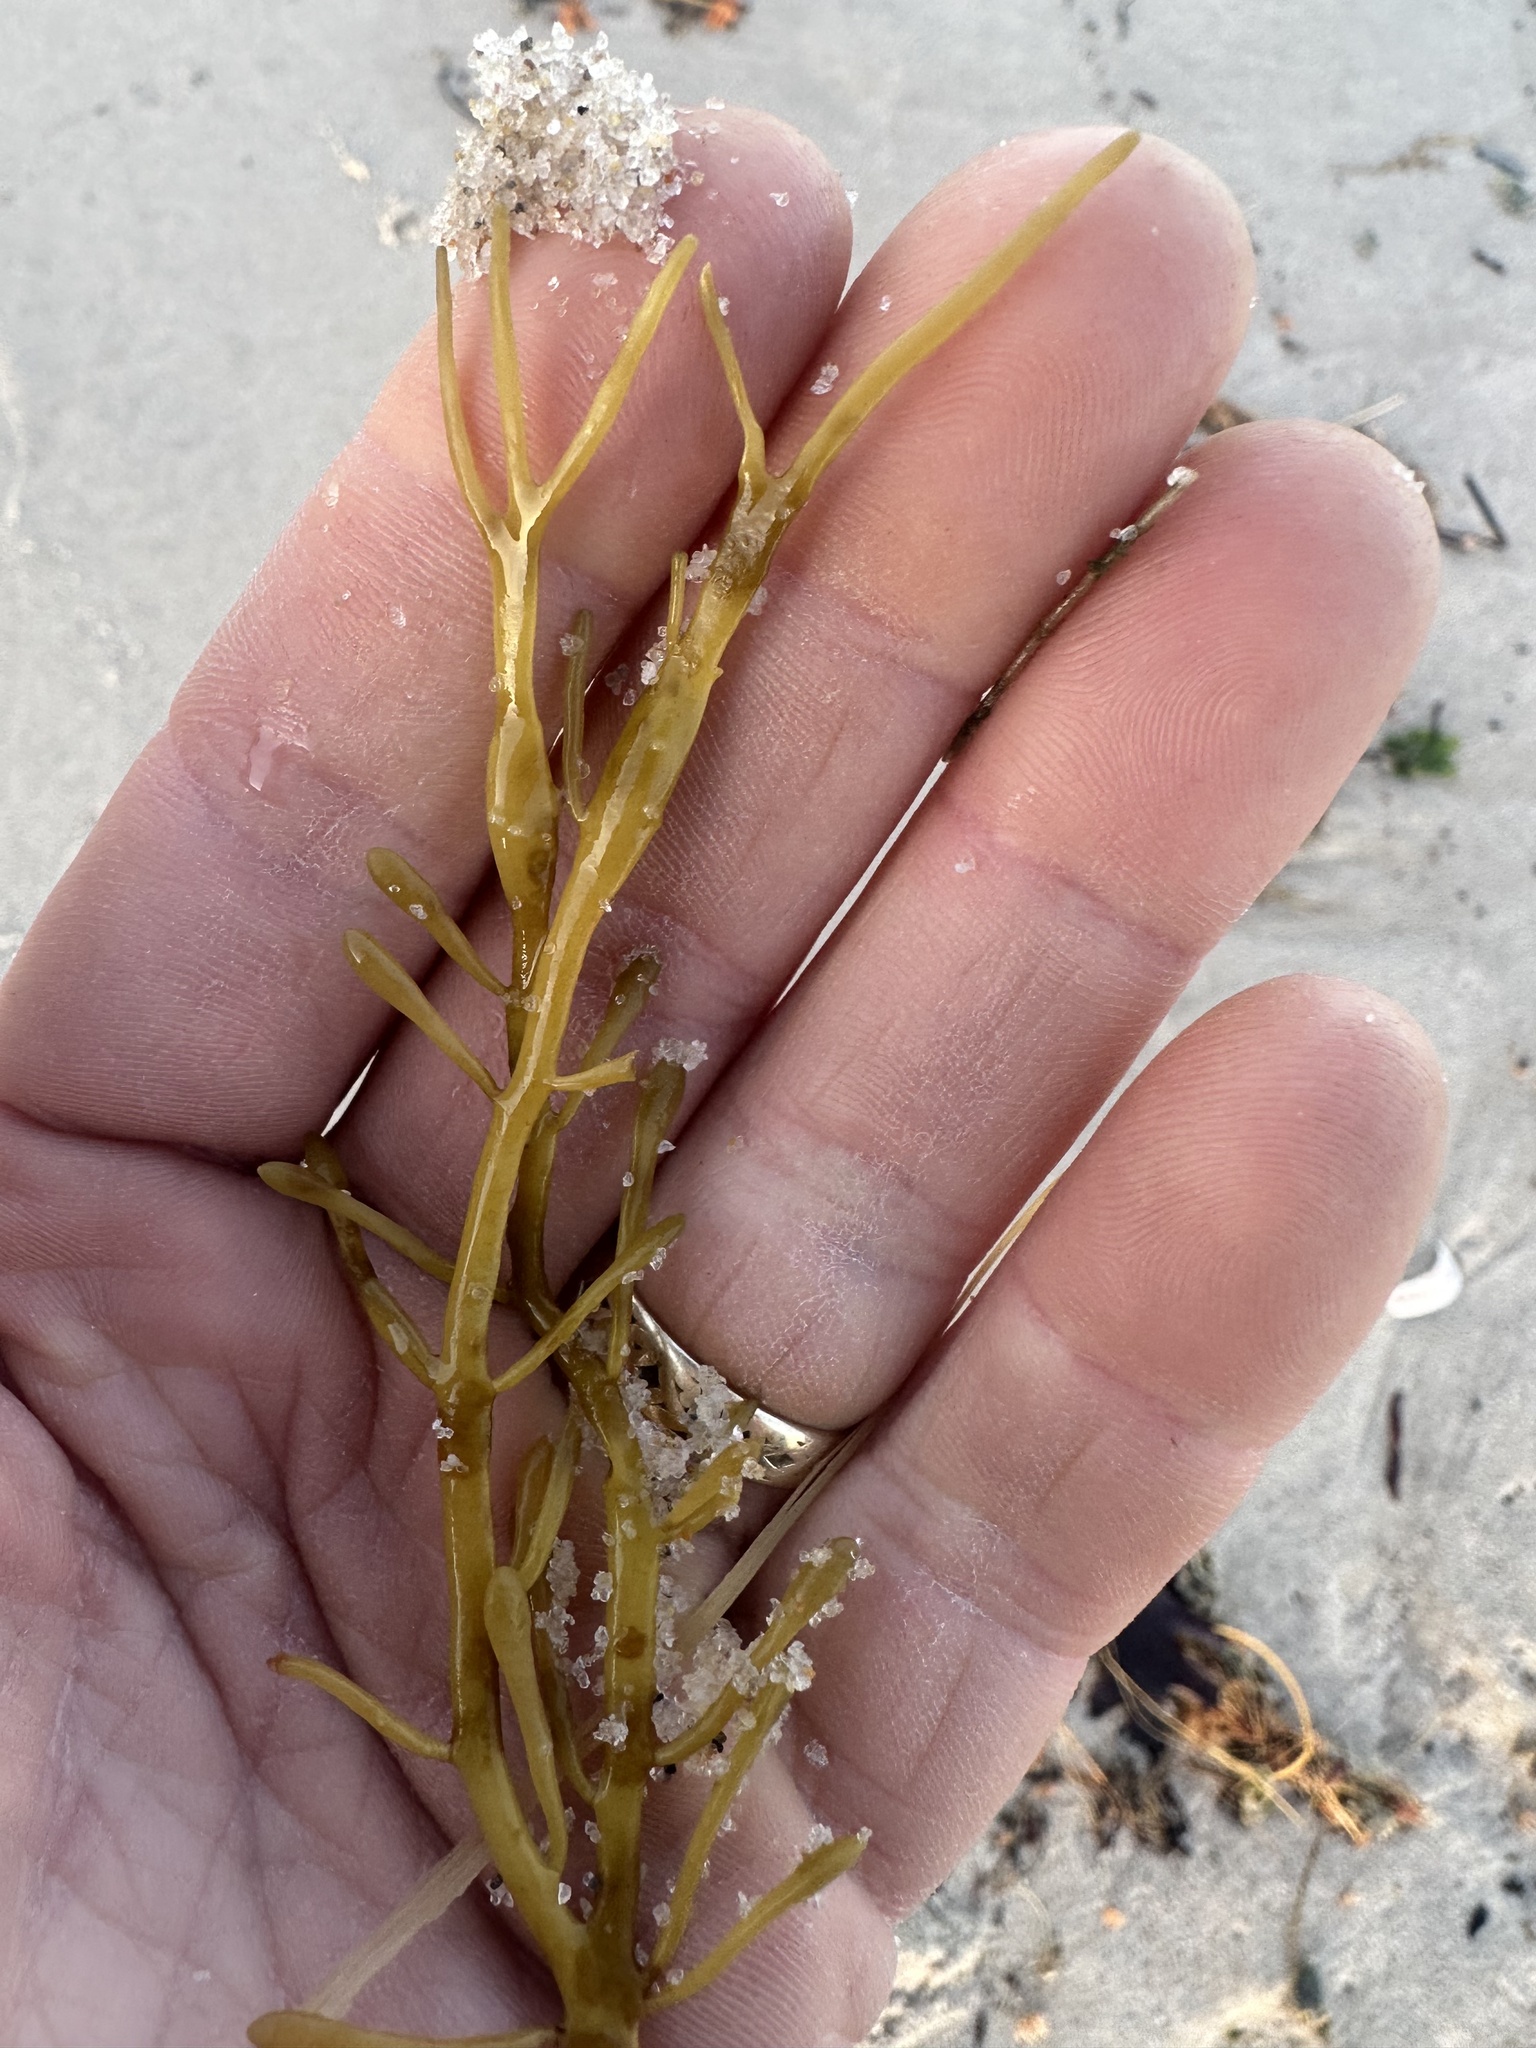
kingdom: Chromista
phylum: Ochrophyta
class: Phaeophyceae
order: Fucales
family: Fucaceae
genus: Ascophyllum
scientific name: Ascophyllum nodosum
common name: Knotted wrack
